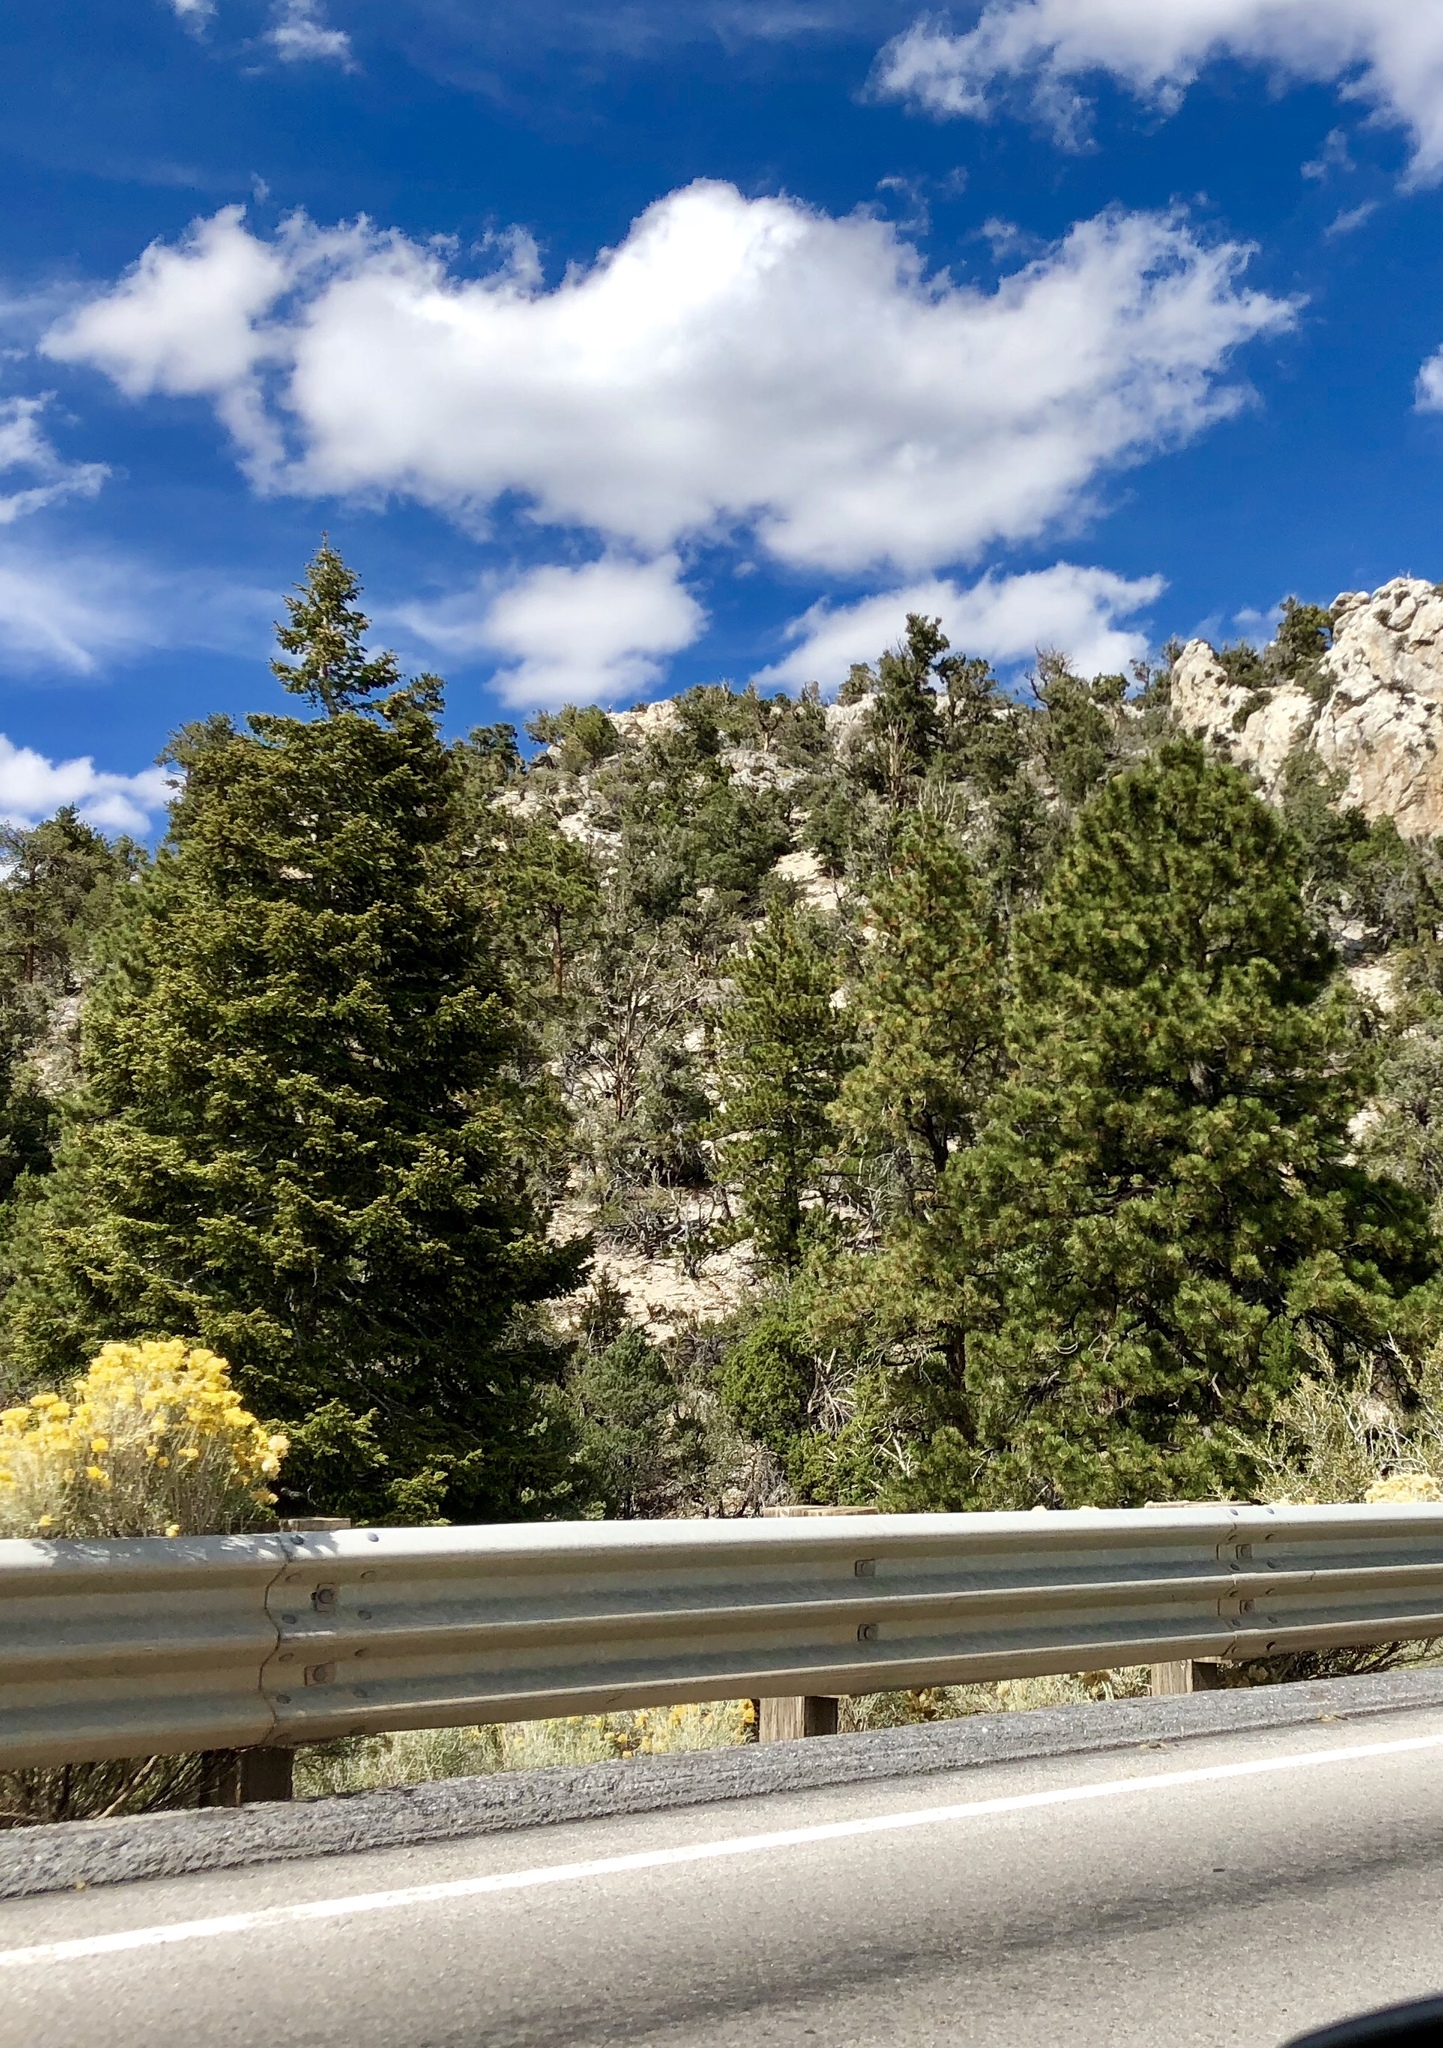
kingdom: Plantae
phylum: Tracheophyta
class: Pinopsida
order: Pinales
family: Pinaceae
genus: Pinus
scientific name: Pinus ponderosa
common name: Western yellow-pine
